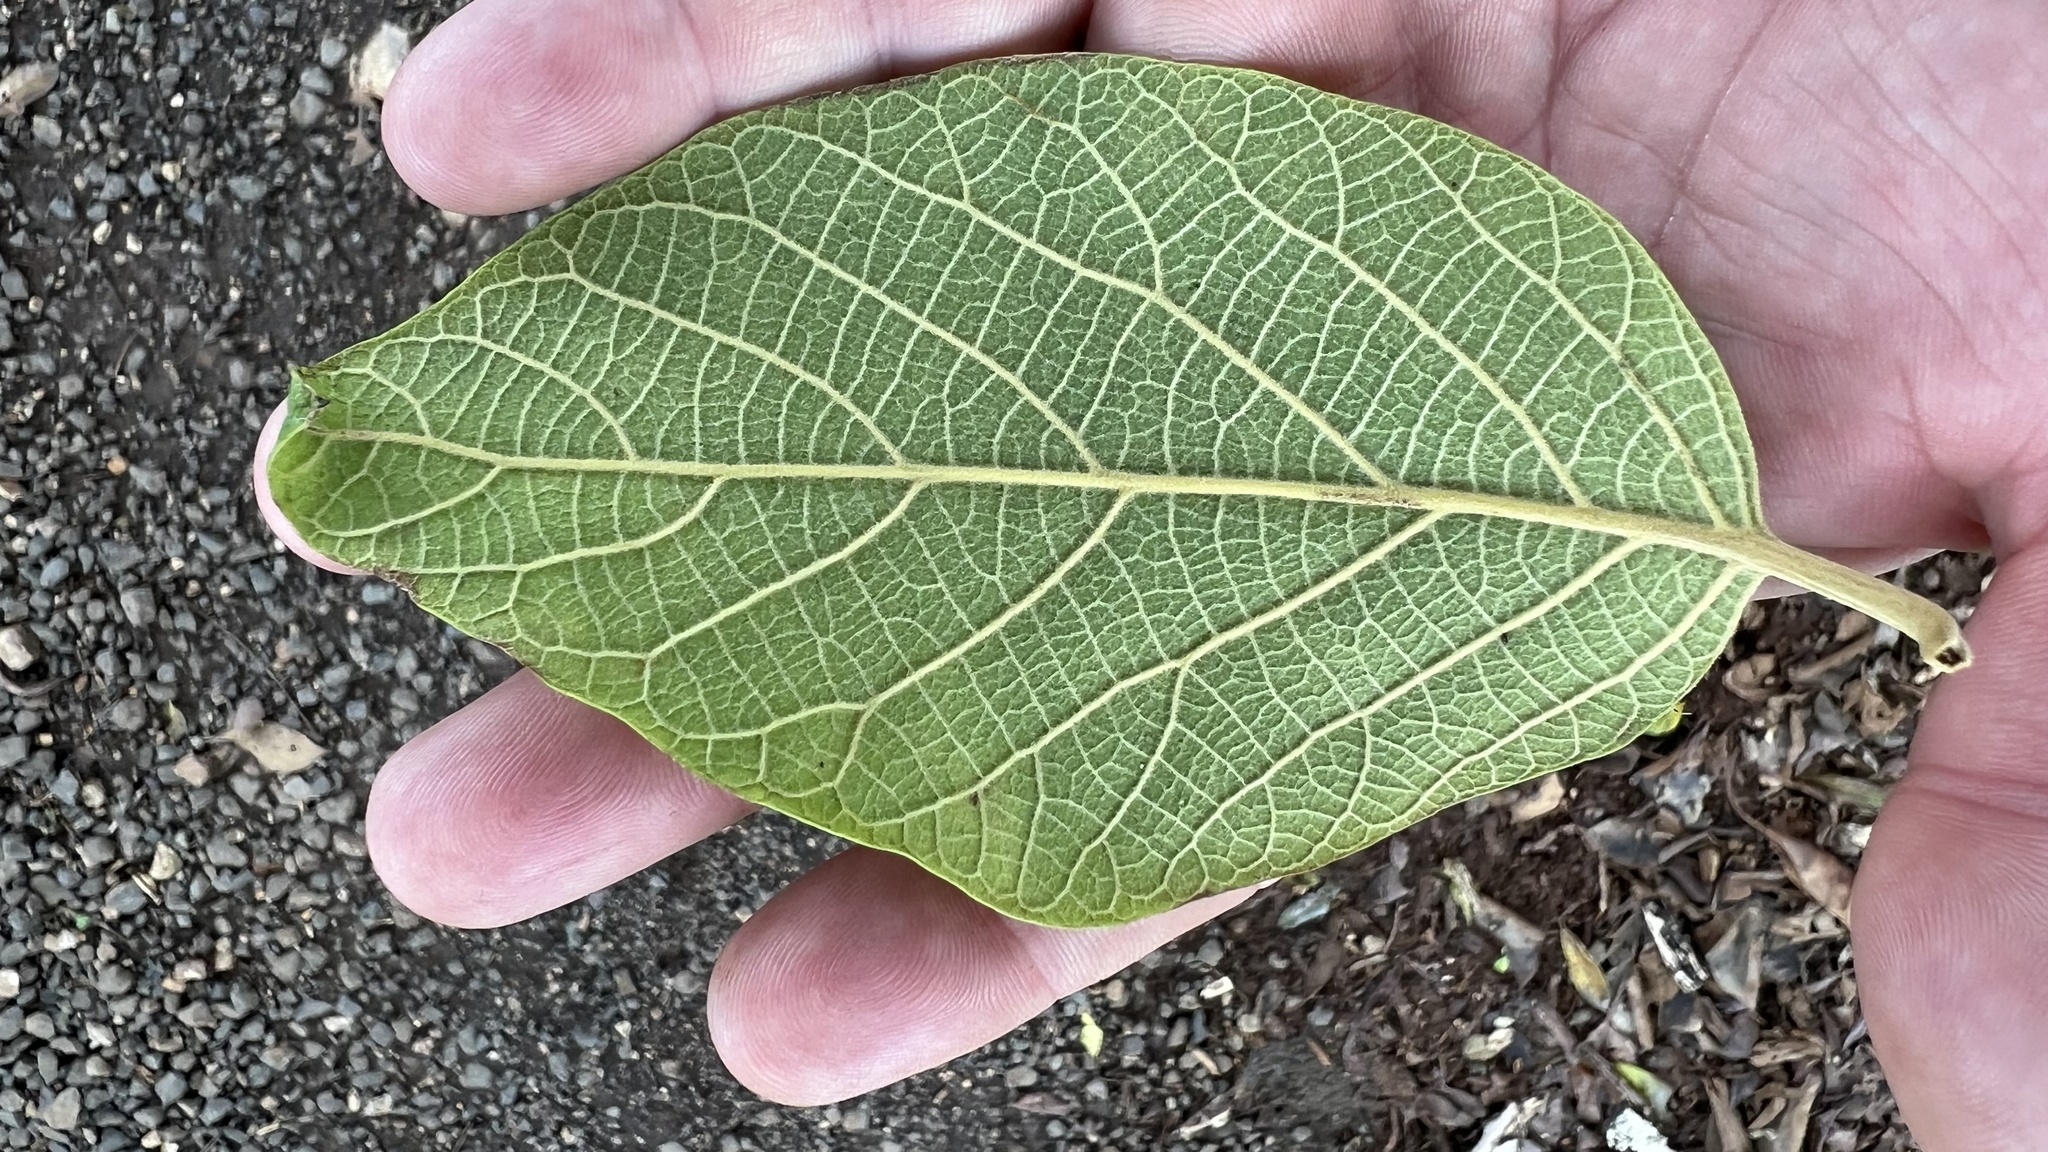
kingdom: Plantae
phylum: Tracheophyta
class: Magnoliopsida
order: Lamiales
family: Lamiaceae
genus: Gmelina
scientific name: Gmelina leichhardtii
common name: Queensland-beech
